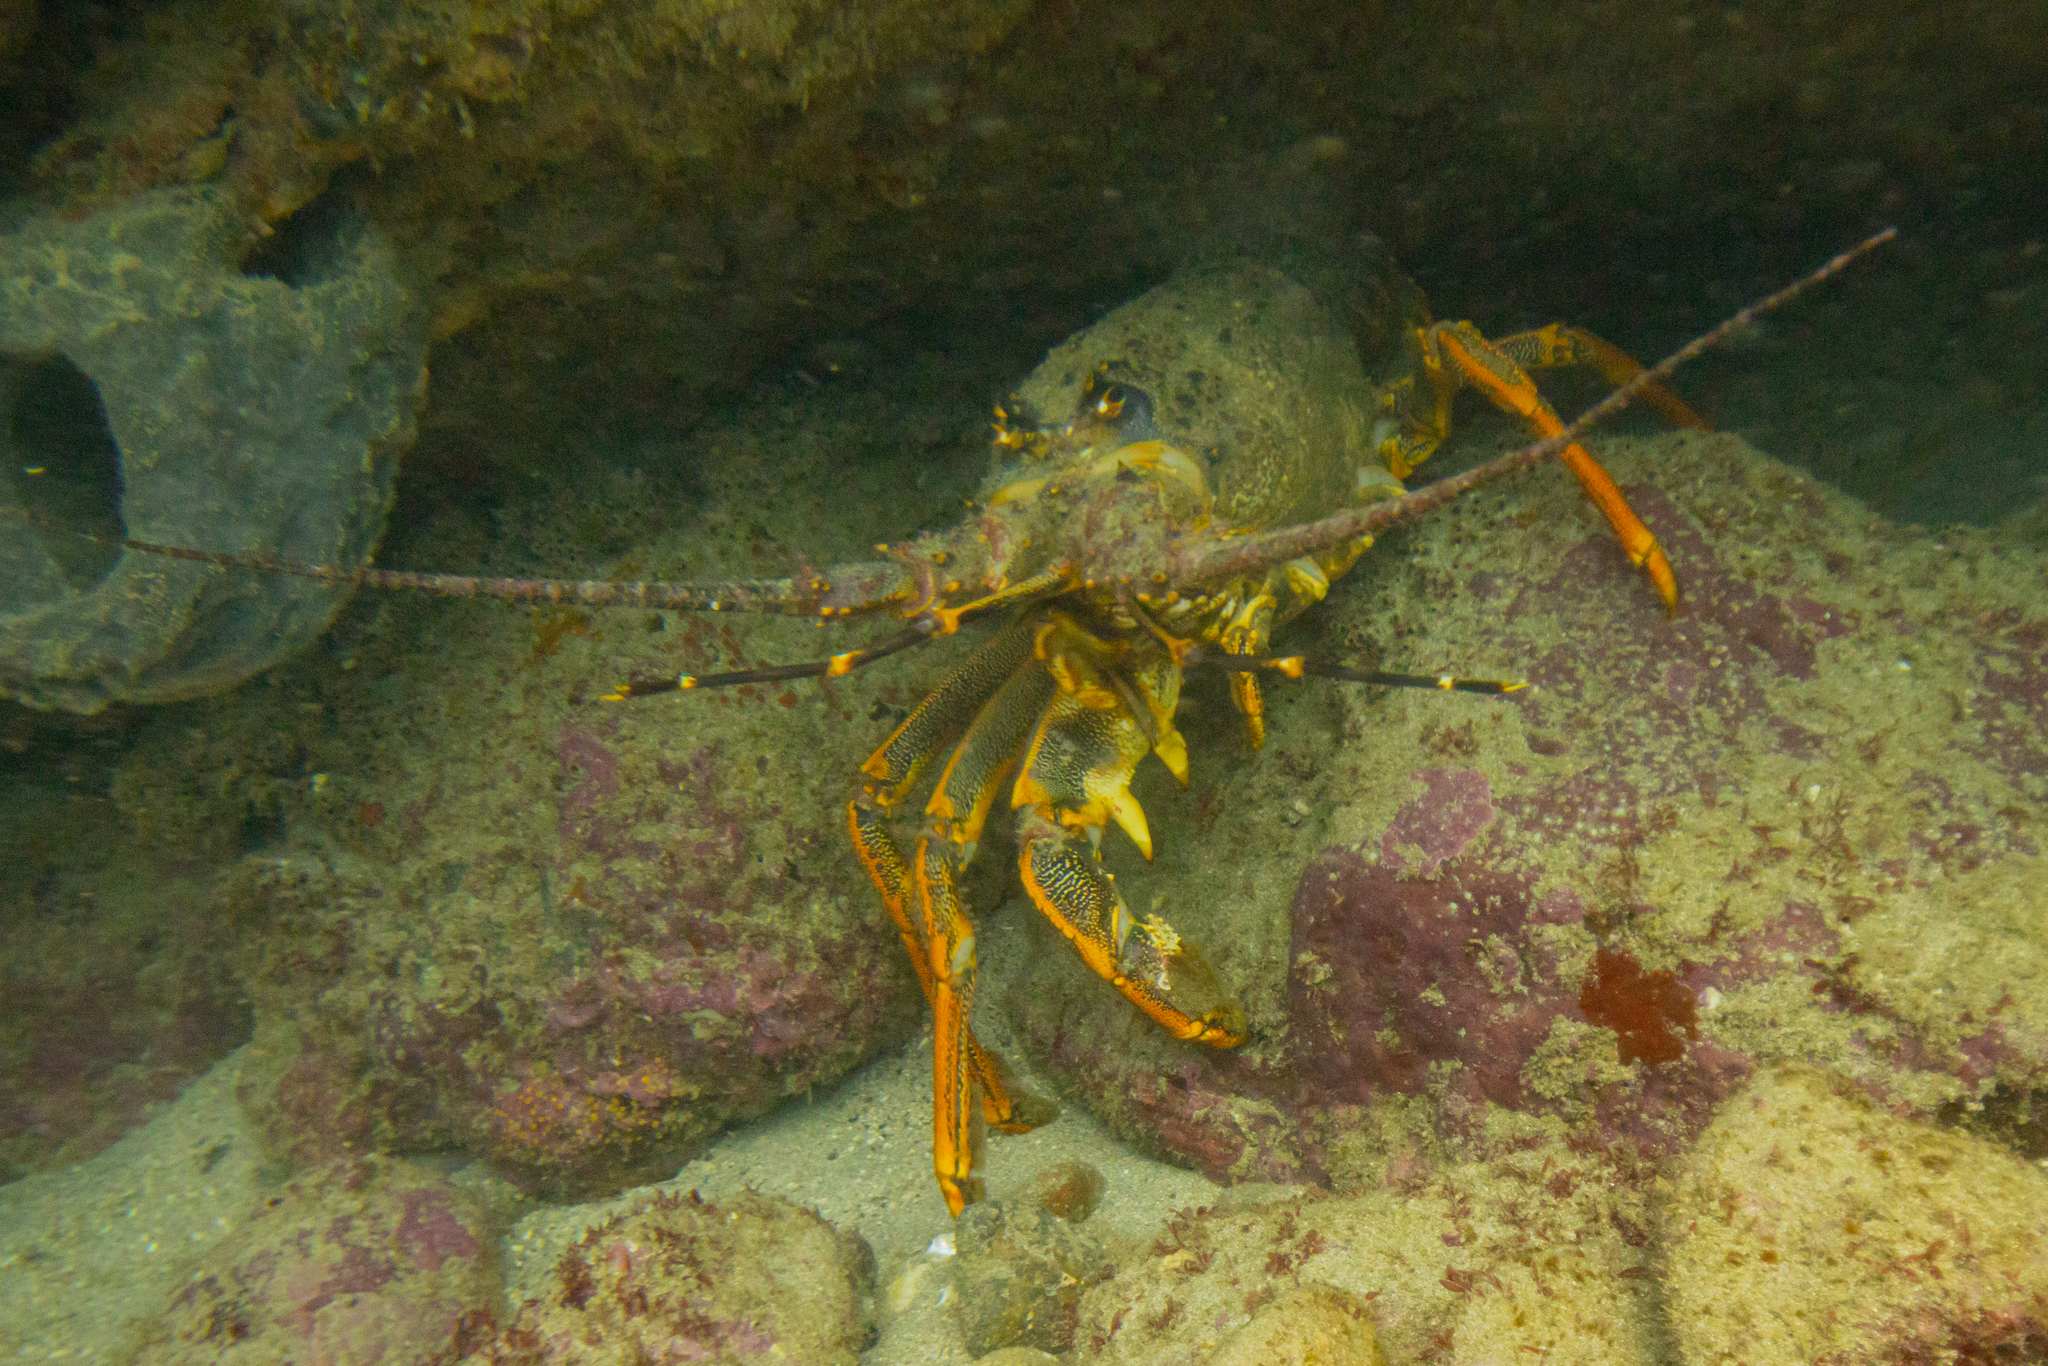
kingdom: Animalia
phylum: Arthropoda
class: Malacostraca
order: Decapoda
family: Palinuridae
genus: Jasus
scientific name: Jasus edwardsii
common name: Red rock lobster
